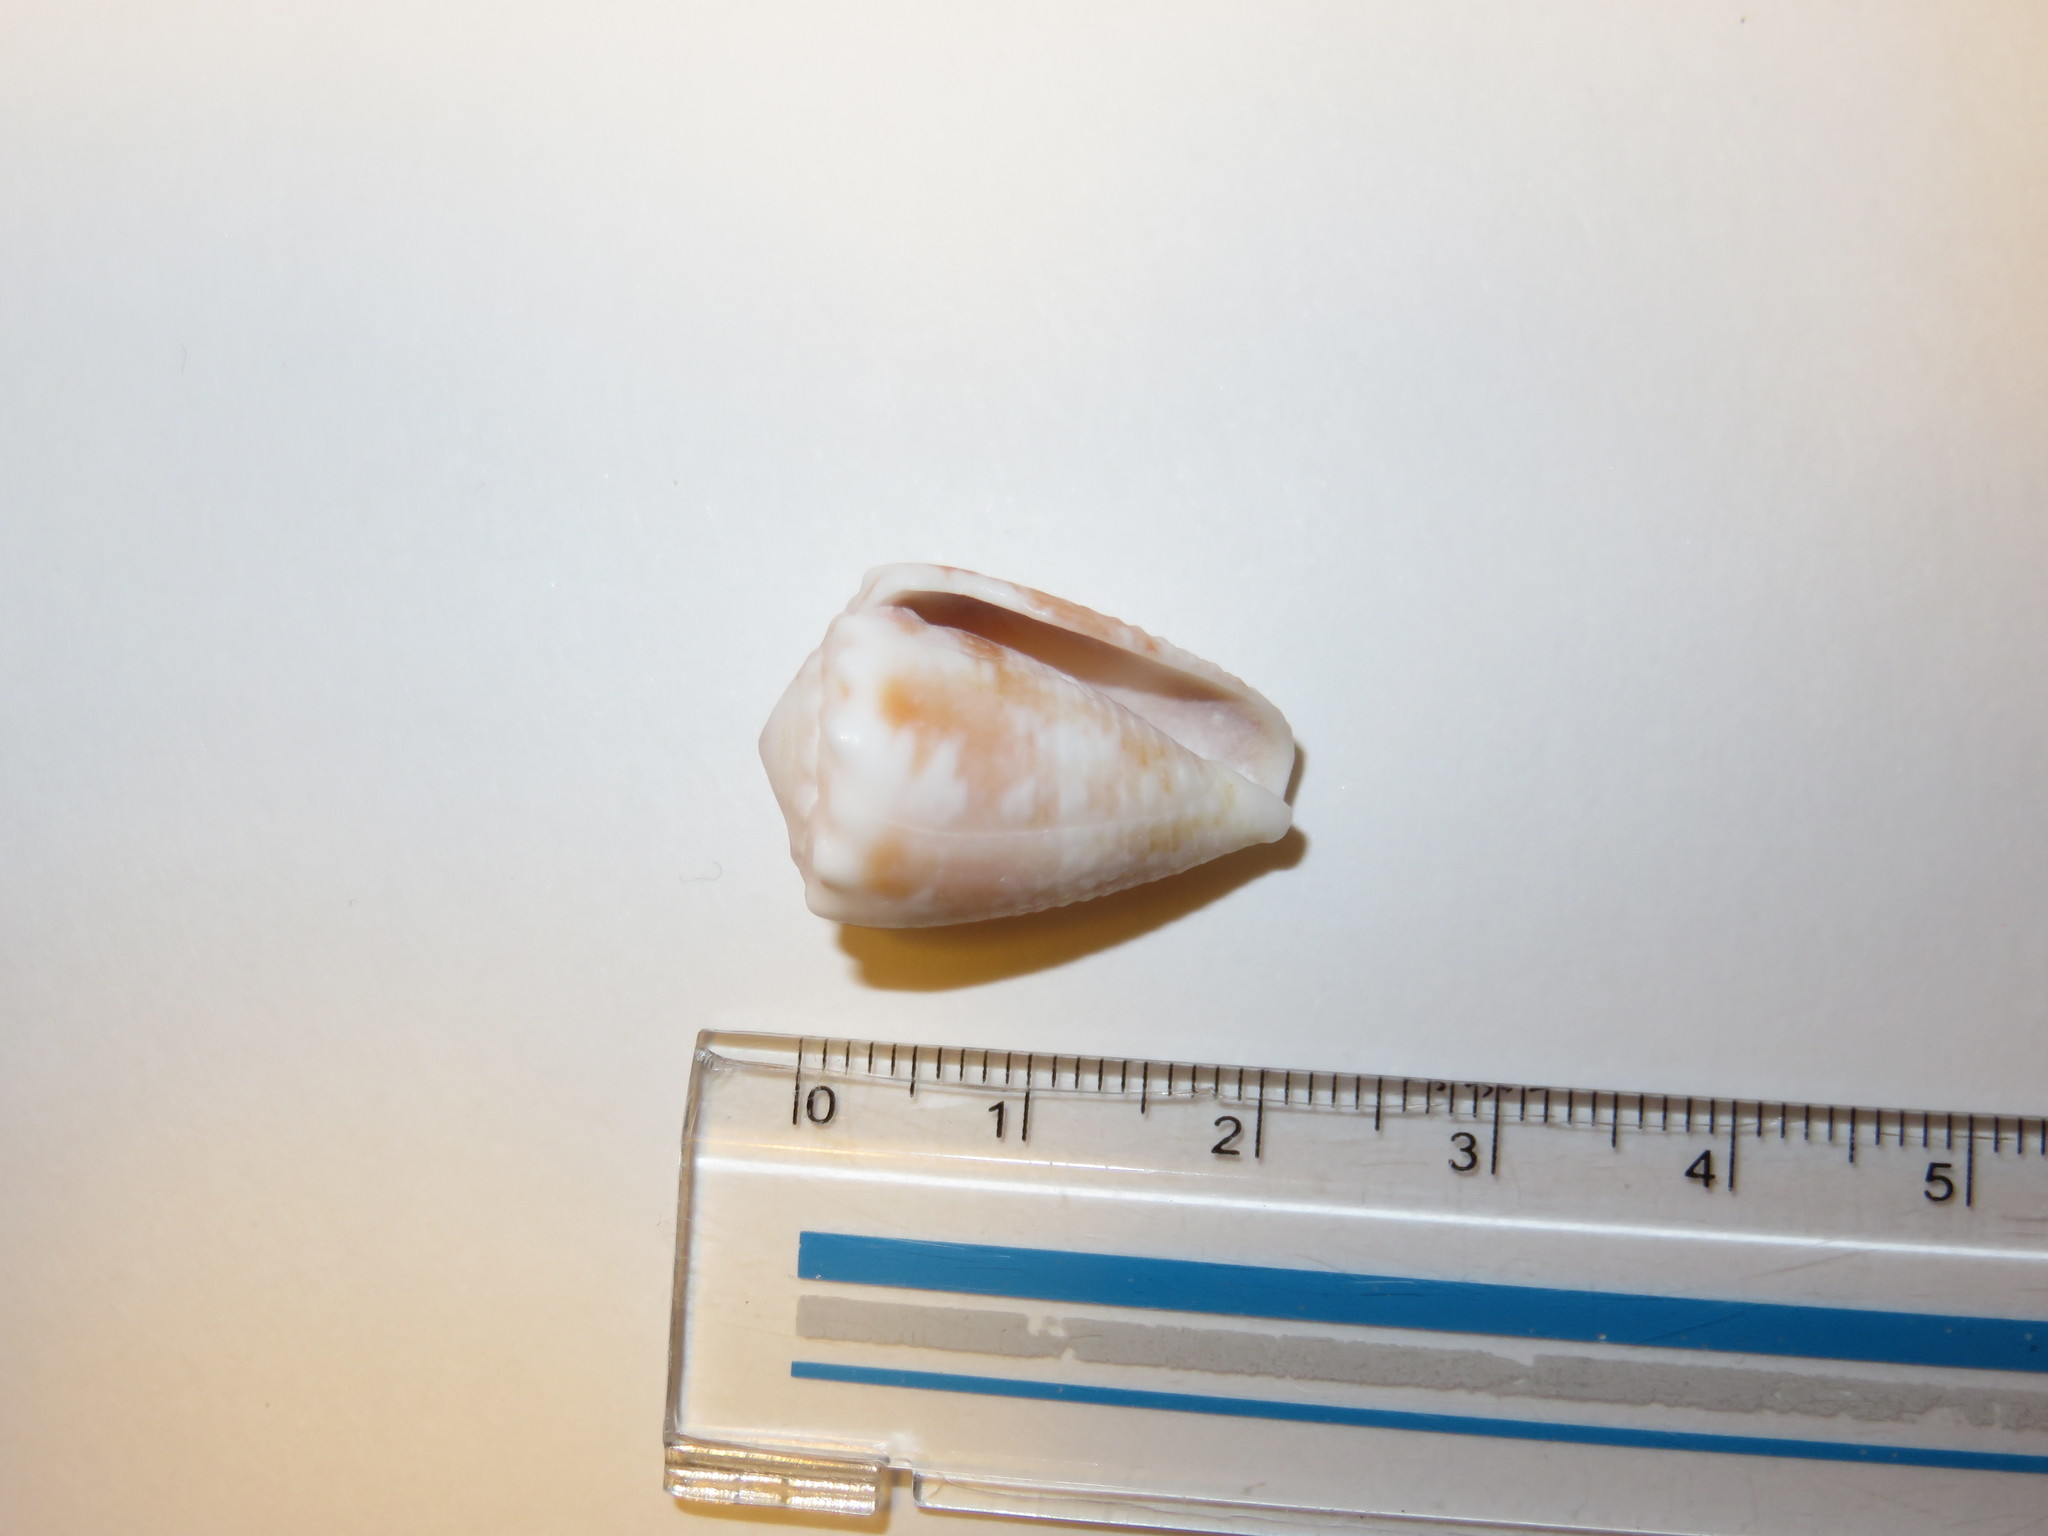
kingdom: Animalia
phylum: Mollusca
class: Gastropoda
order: Neogastropoda
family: Conidae
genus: Conus
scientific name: Conus miliaris
